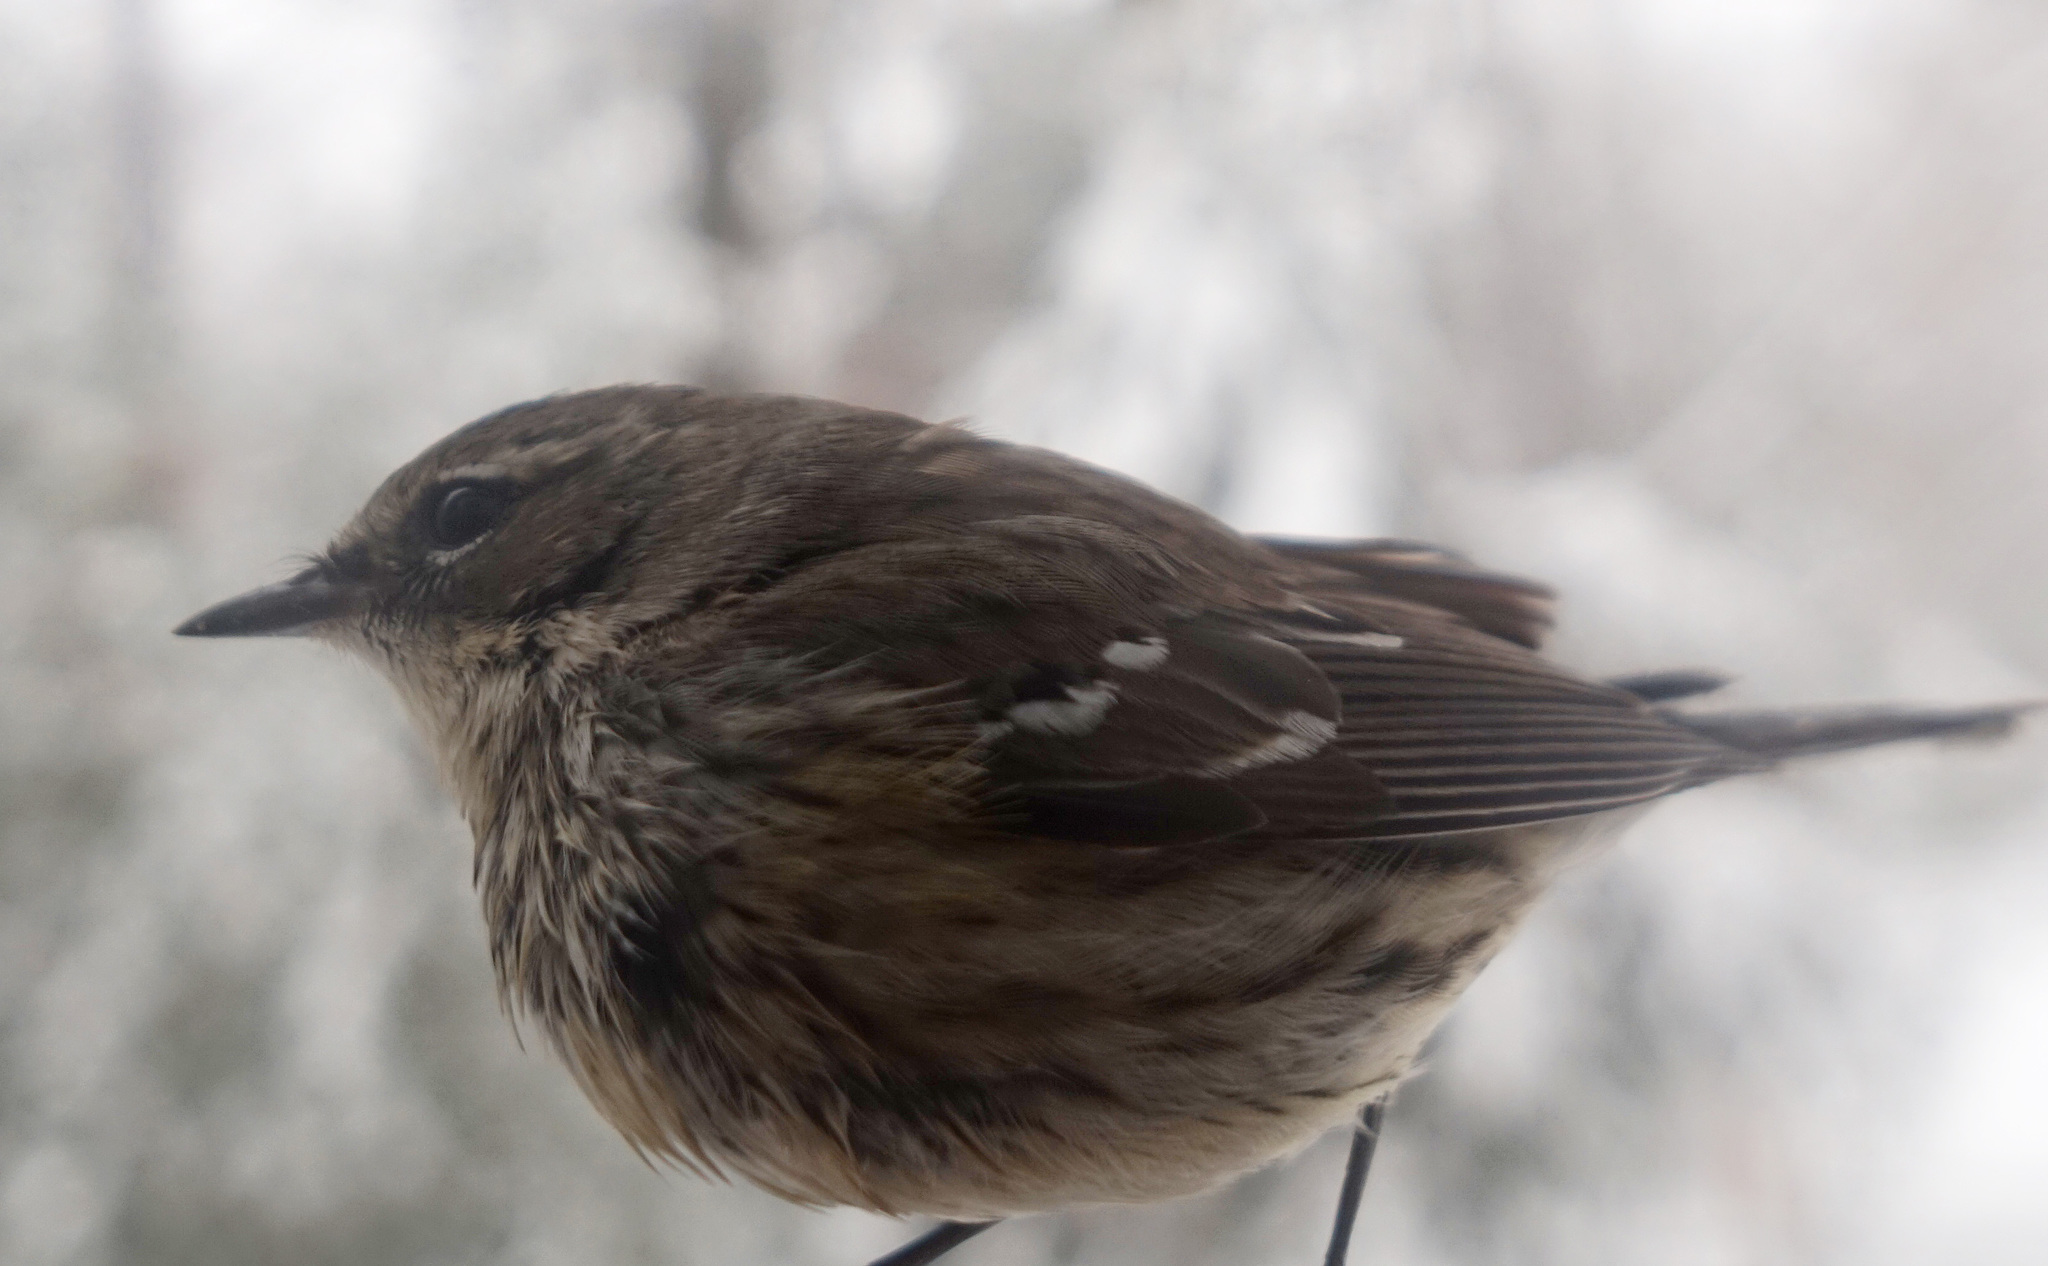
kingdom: Animalia
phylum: Chordata
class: Aves
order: Passeriformes
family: Parulidae
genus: Setophaga
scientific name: Setophaga coronata
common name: Myrtle warbler
